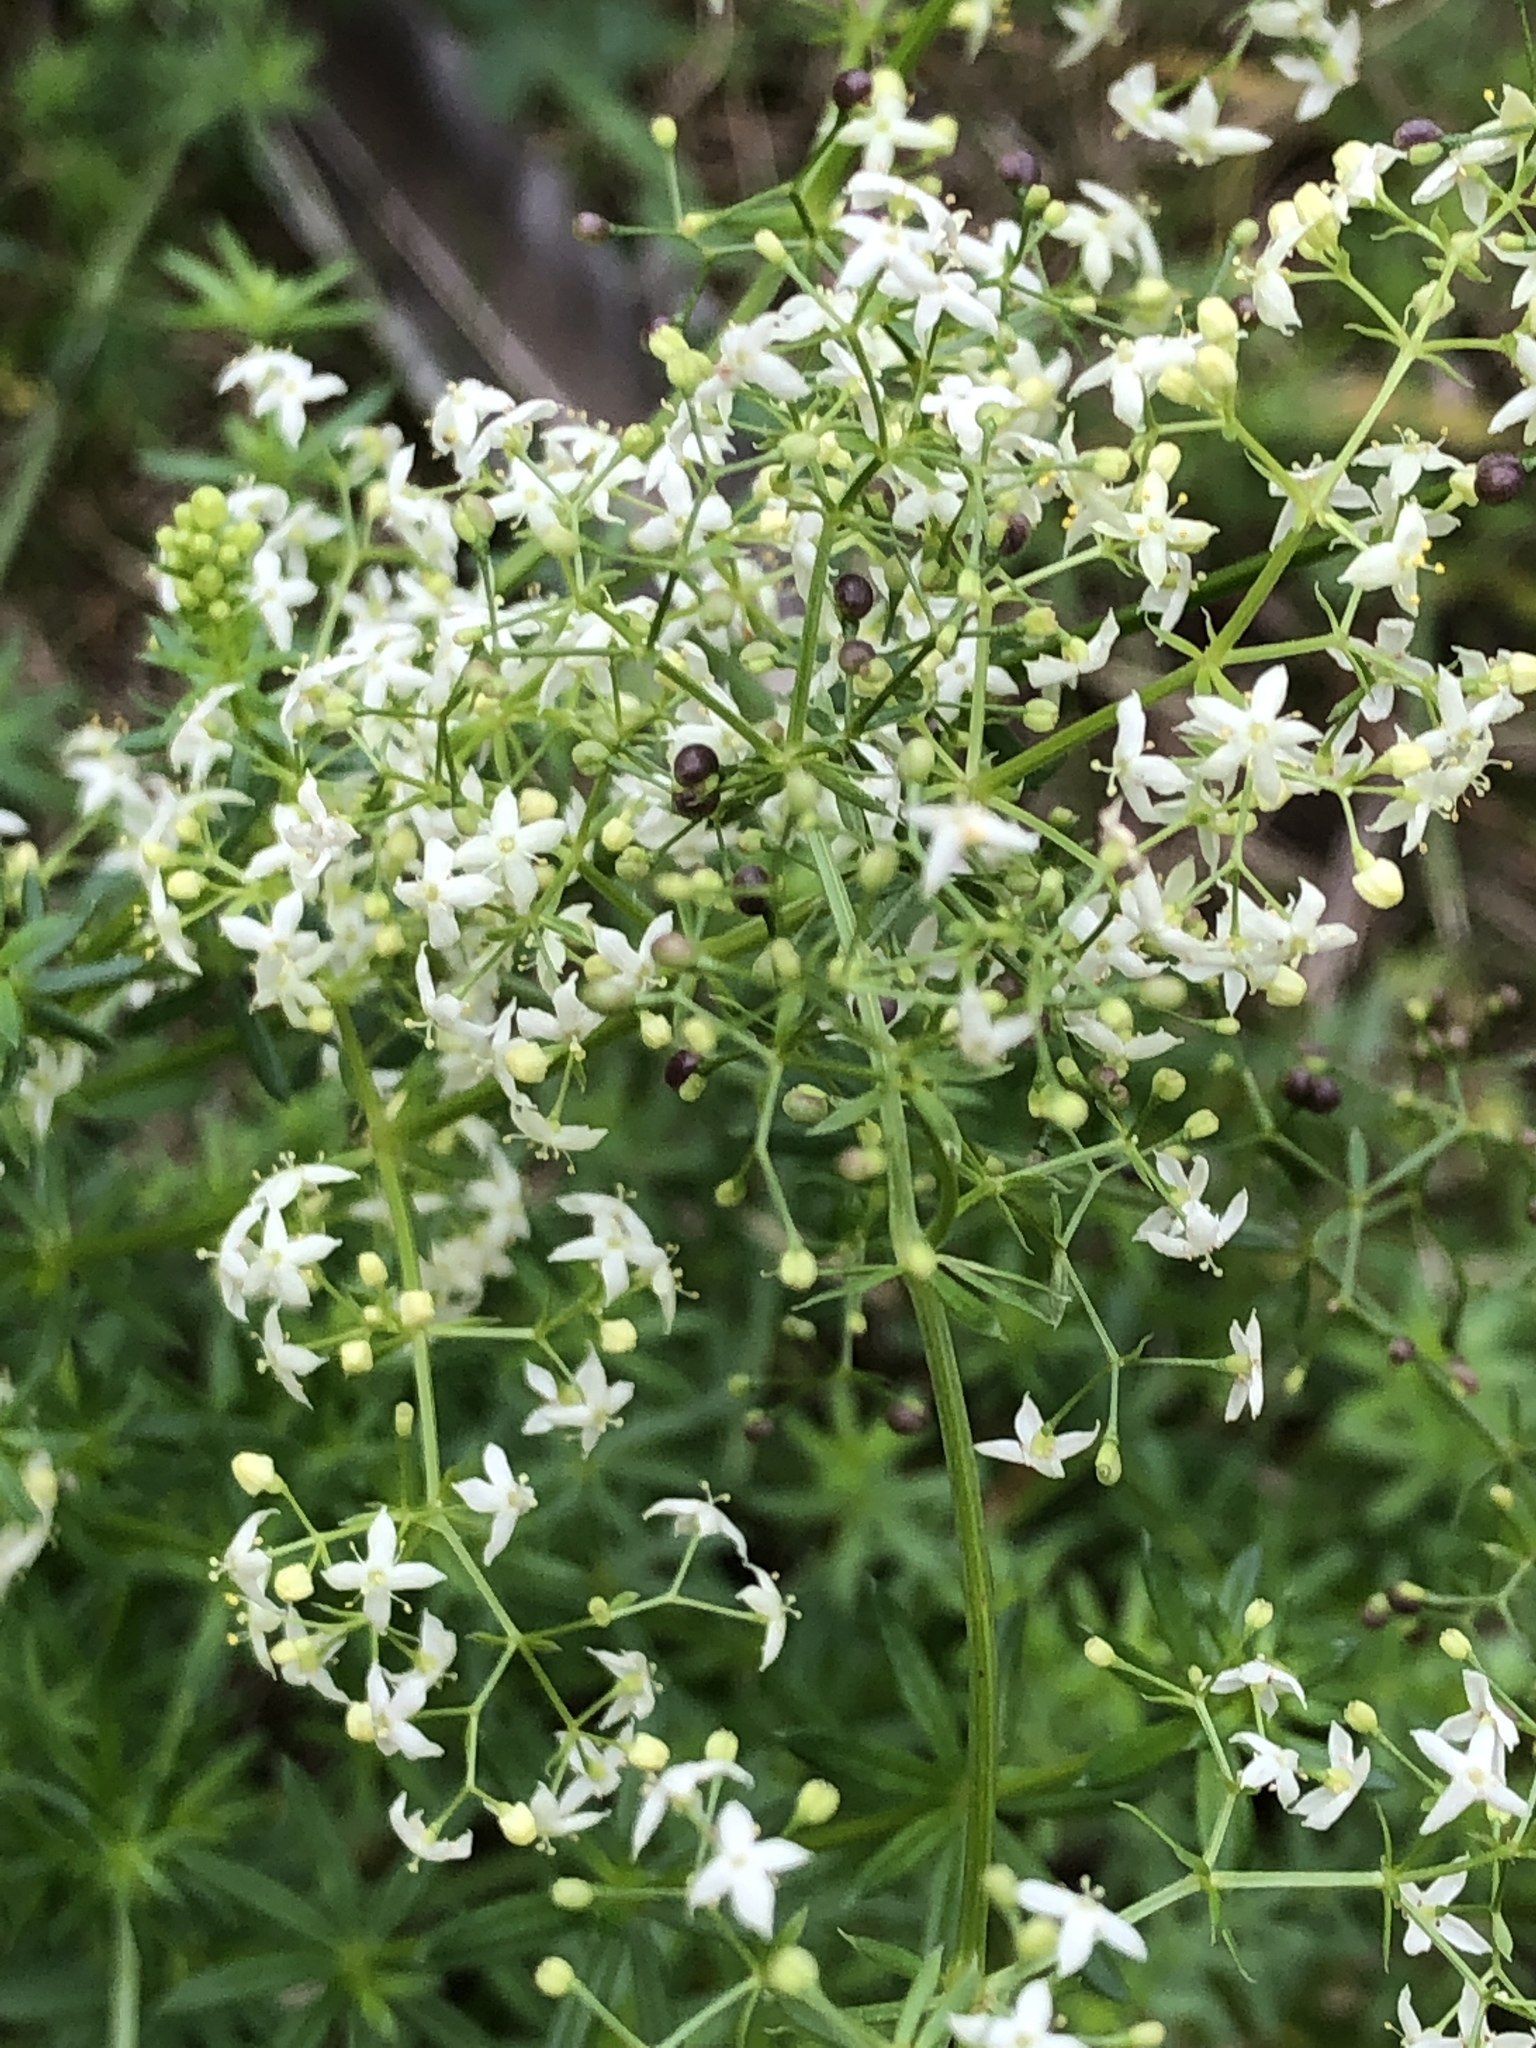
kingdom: Plantae
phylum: Tracheophyta
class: Magnoliopsida
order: Gentianales
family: Rubiaceae
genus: Galium
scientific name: Galium album
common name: White bedstraw
